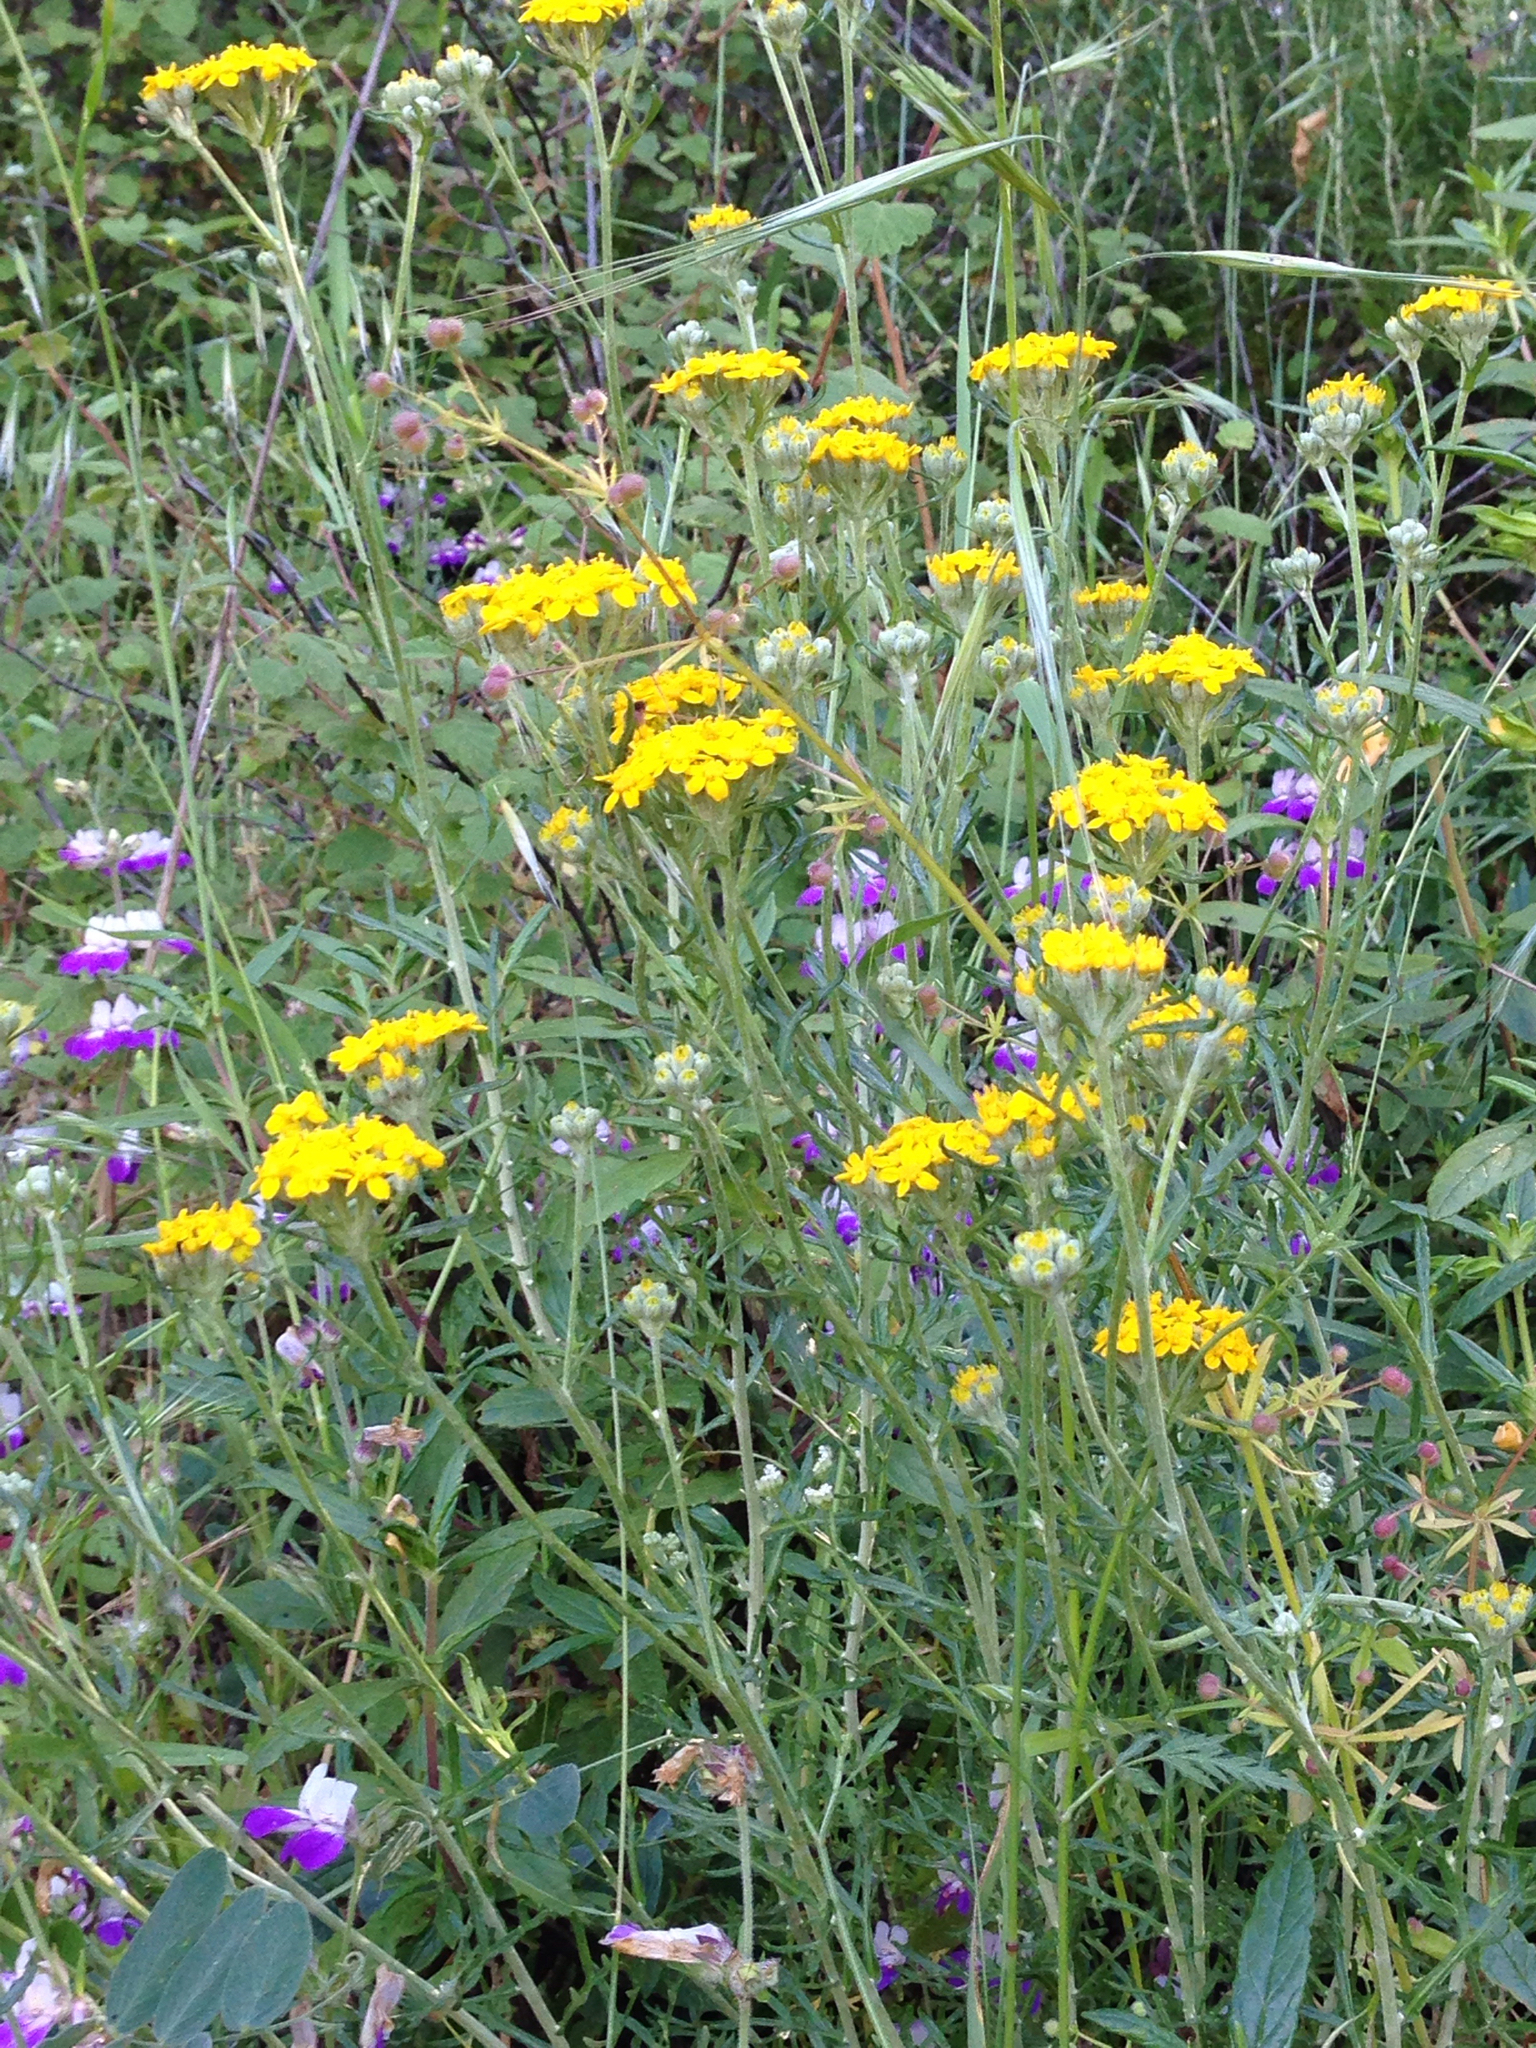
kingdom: Plantae
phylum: Tracheophyta
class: Magnoliopsida
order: Asterales
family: Asteraceae
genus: Eriophyllum
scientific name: Eriophyllum confertiflorum
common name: Golden-yarrow
